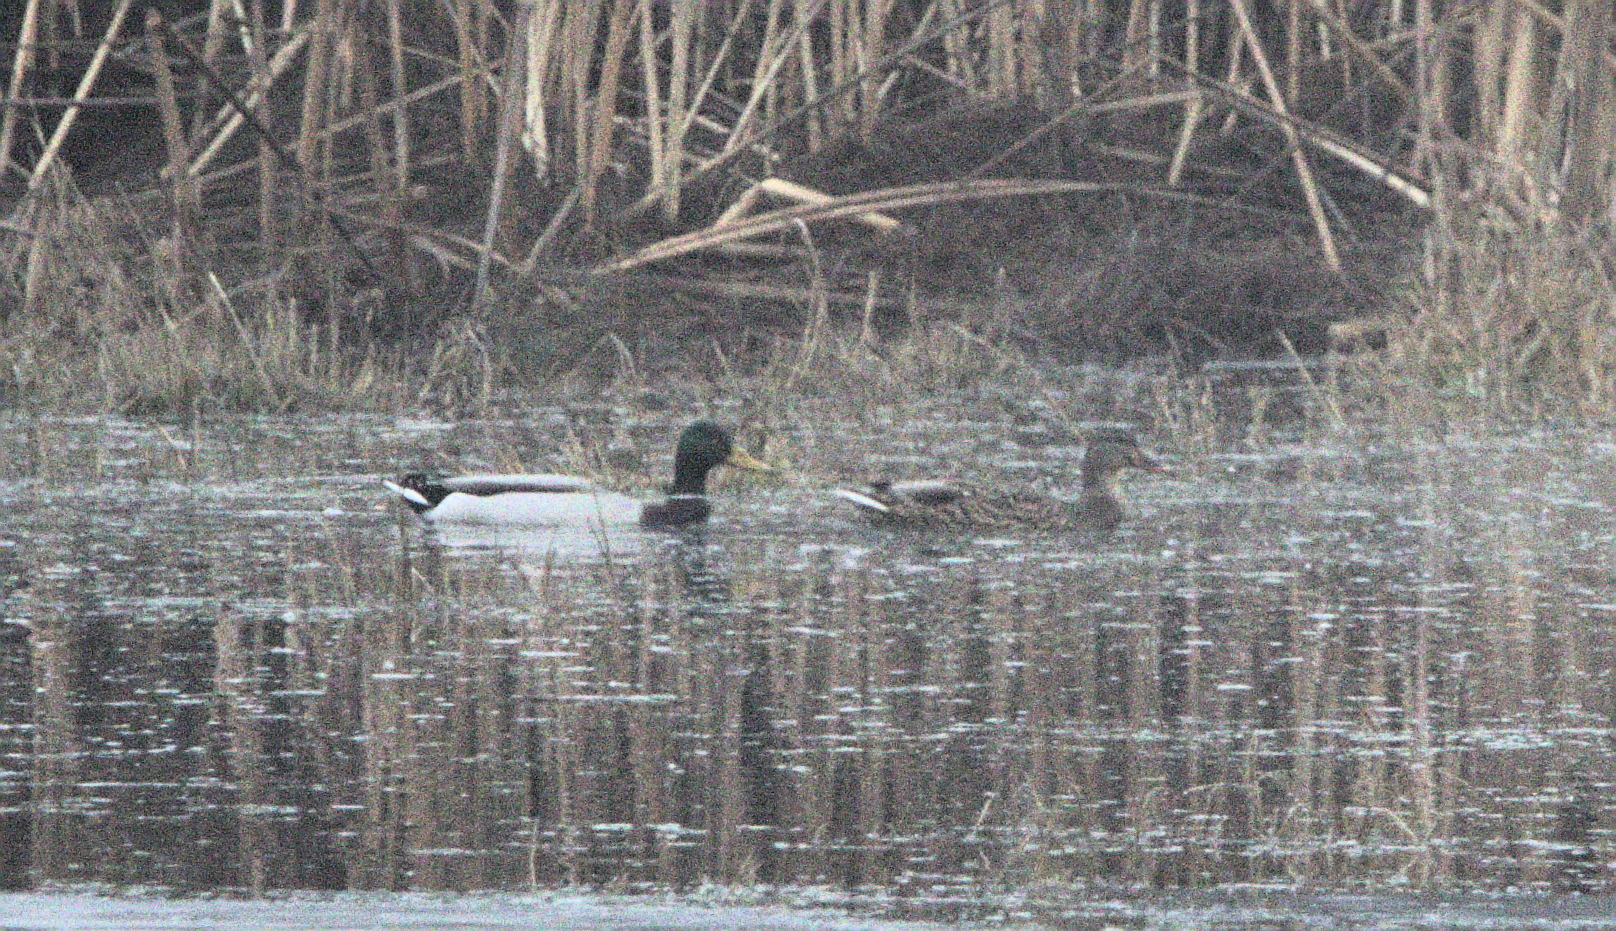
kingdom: Animalia
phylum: Chordata
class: Aves
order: Anseriformes
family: Anatidae
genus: Anas
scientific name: Anas platyrhynchos
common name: Mallard
